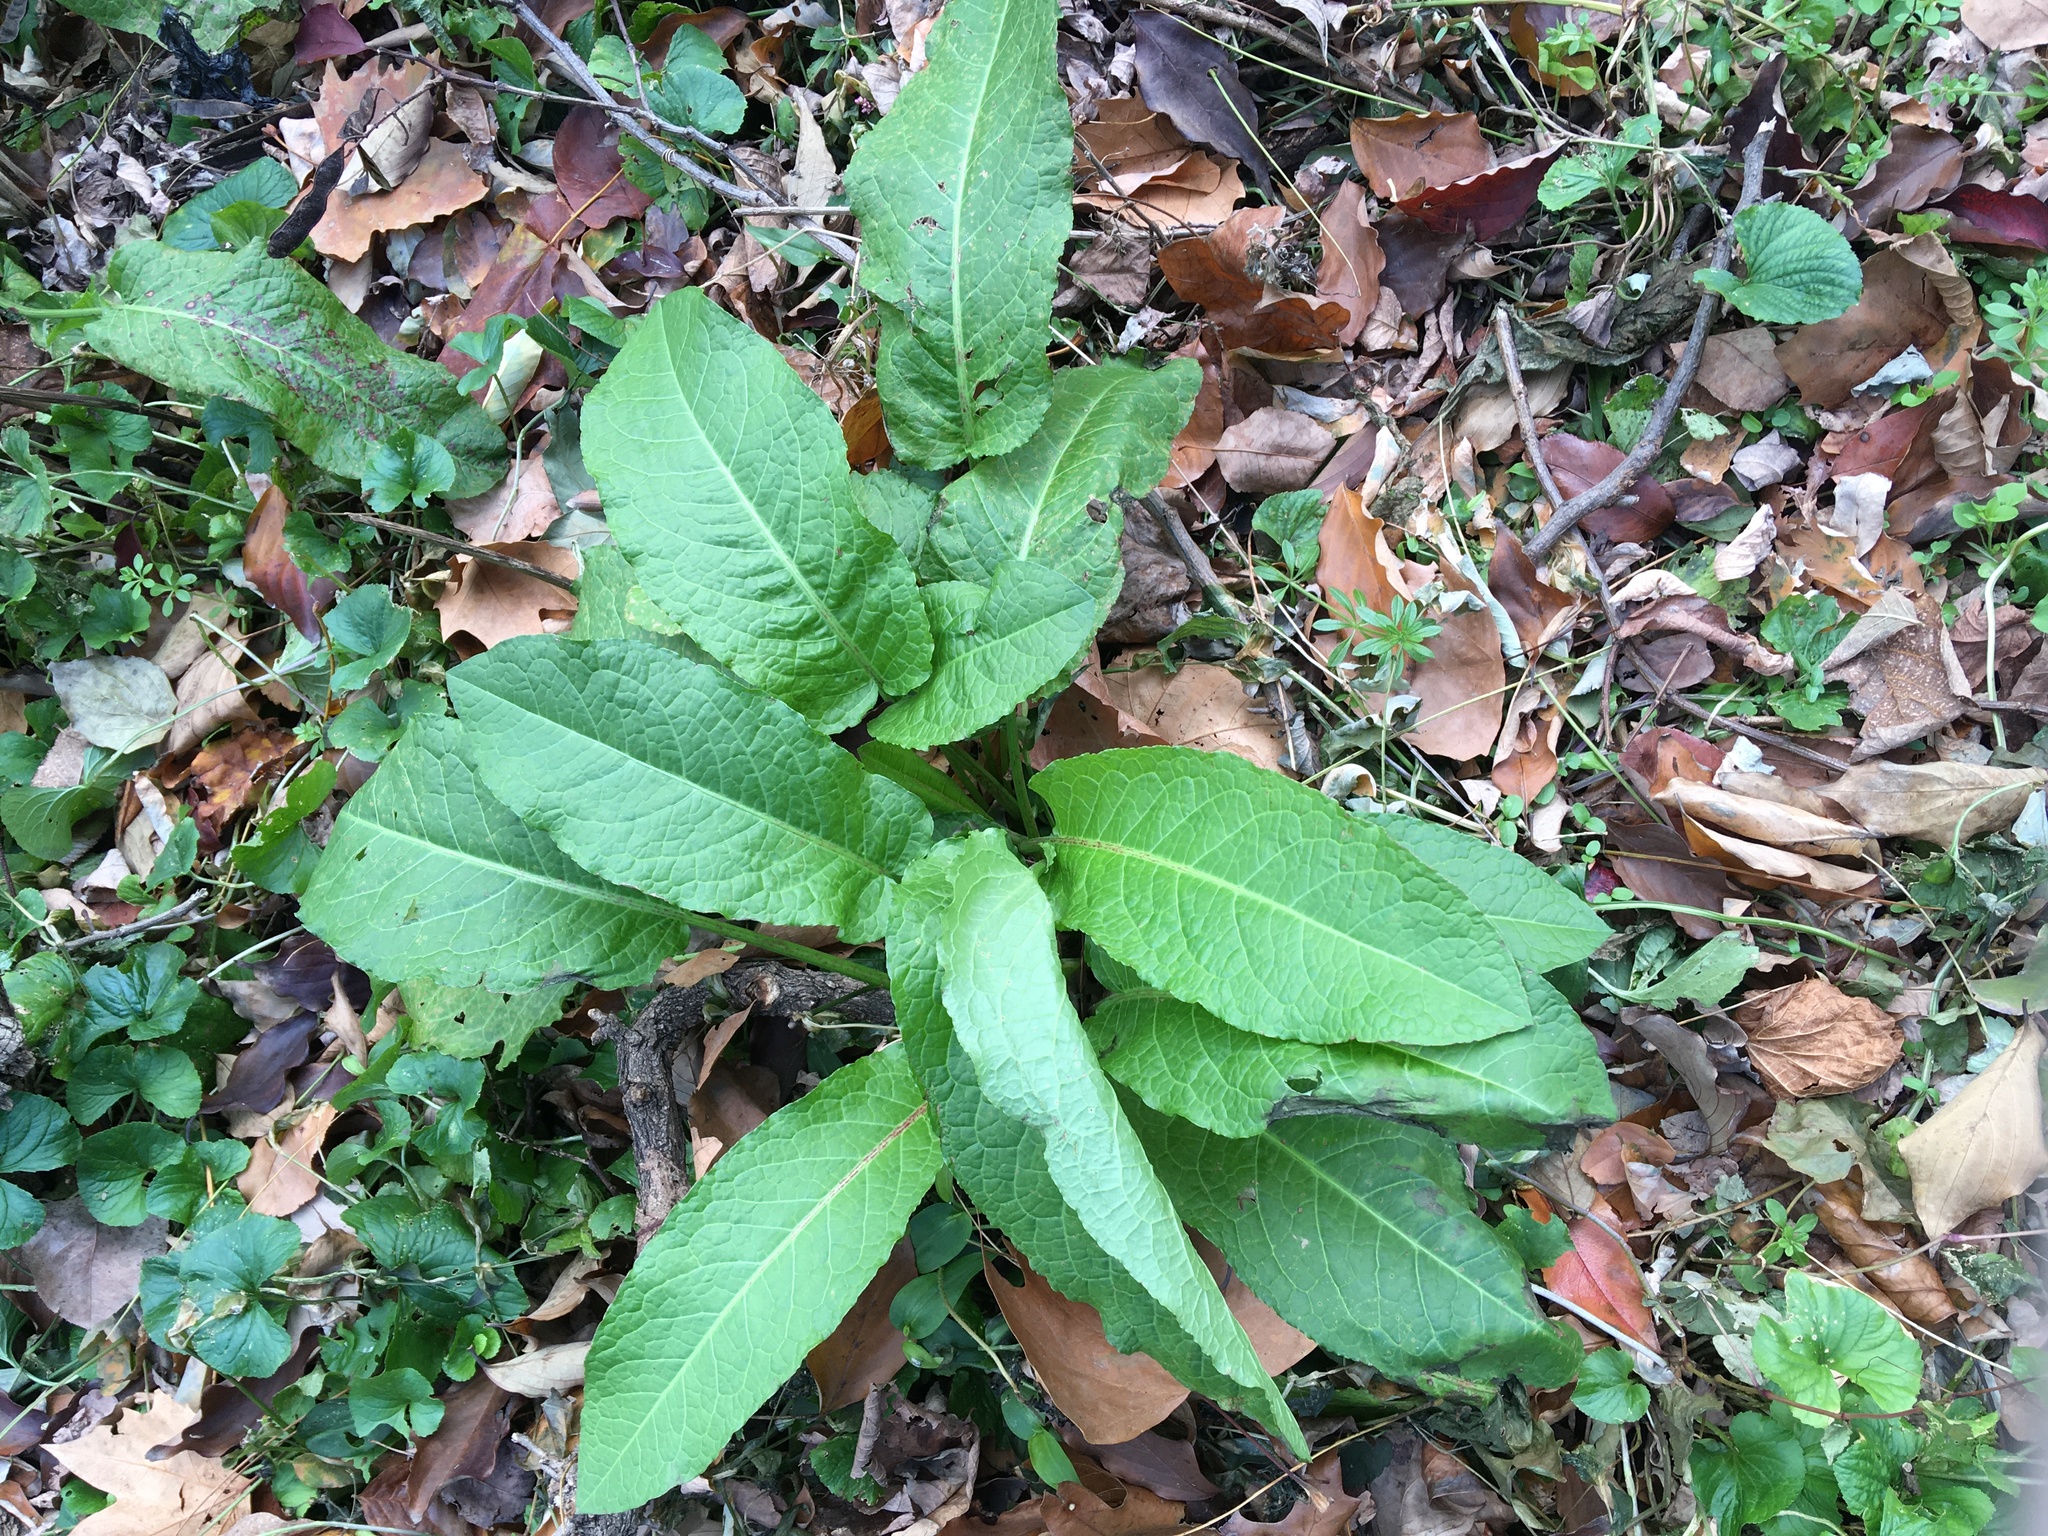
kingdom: Plantae
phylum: Tracheophyta
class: Magnoliopsida
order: Caryophyllales
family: Polygonaceae
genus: Rumex
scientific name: Rumex obtusifolius
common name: Bitter dock
